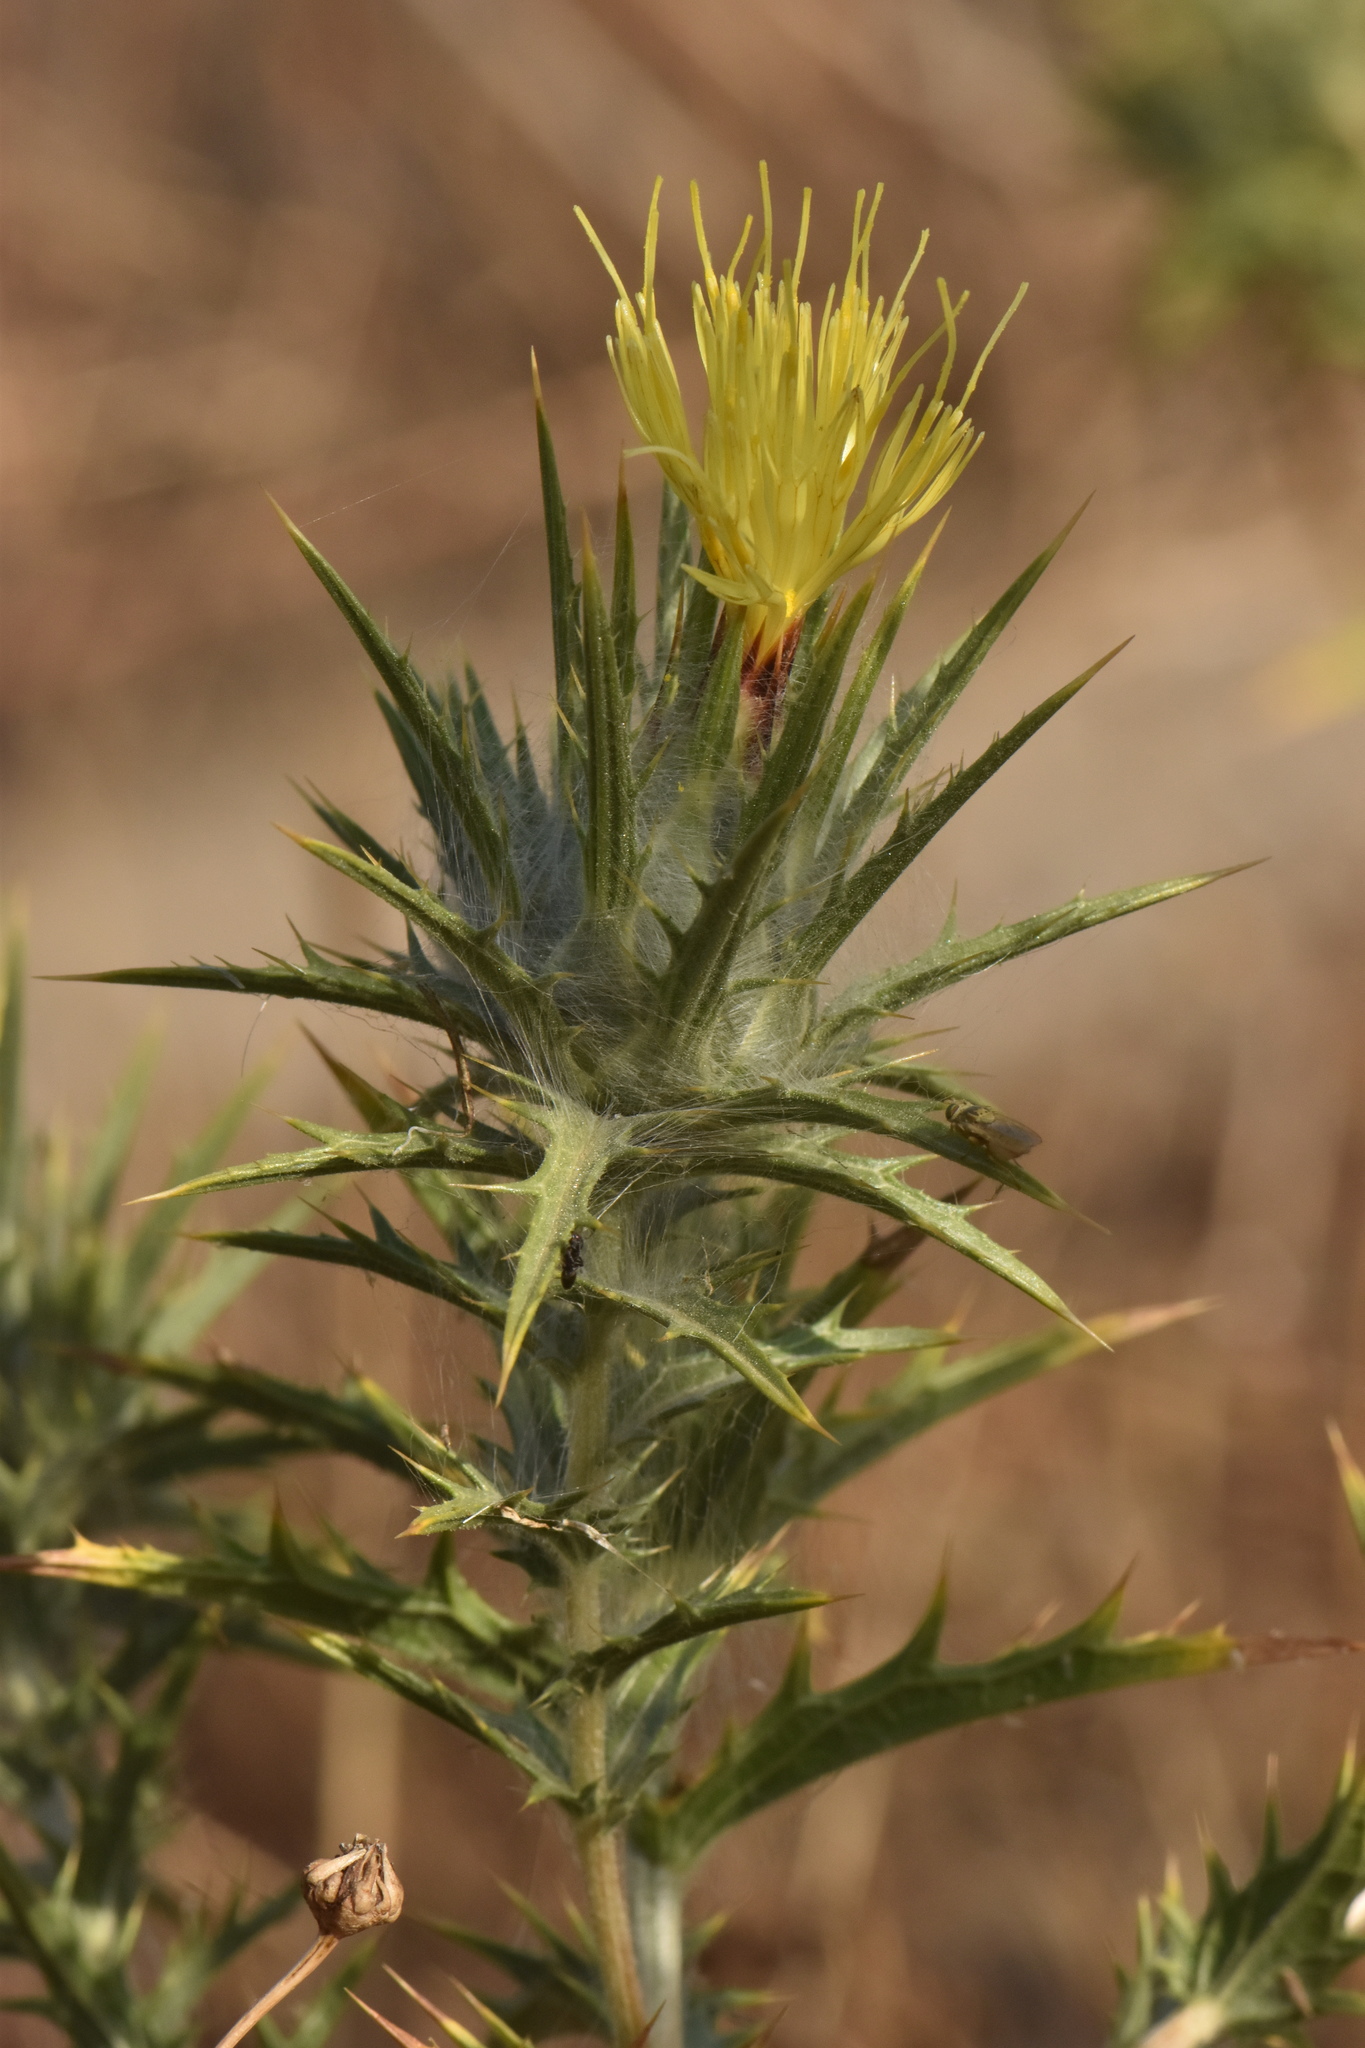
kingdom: Plantae
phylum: Tracheophyta
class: Magnoliopsida
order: Asterales
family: Asteraceae
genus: Carthamus
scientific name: Carthamus lanatus
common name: Downy safflower
